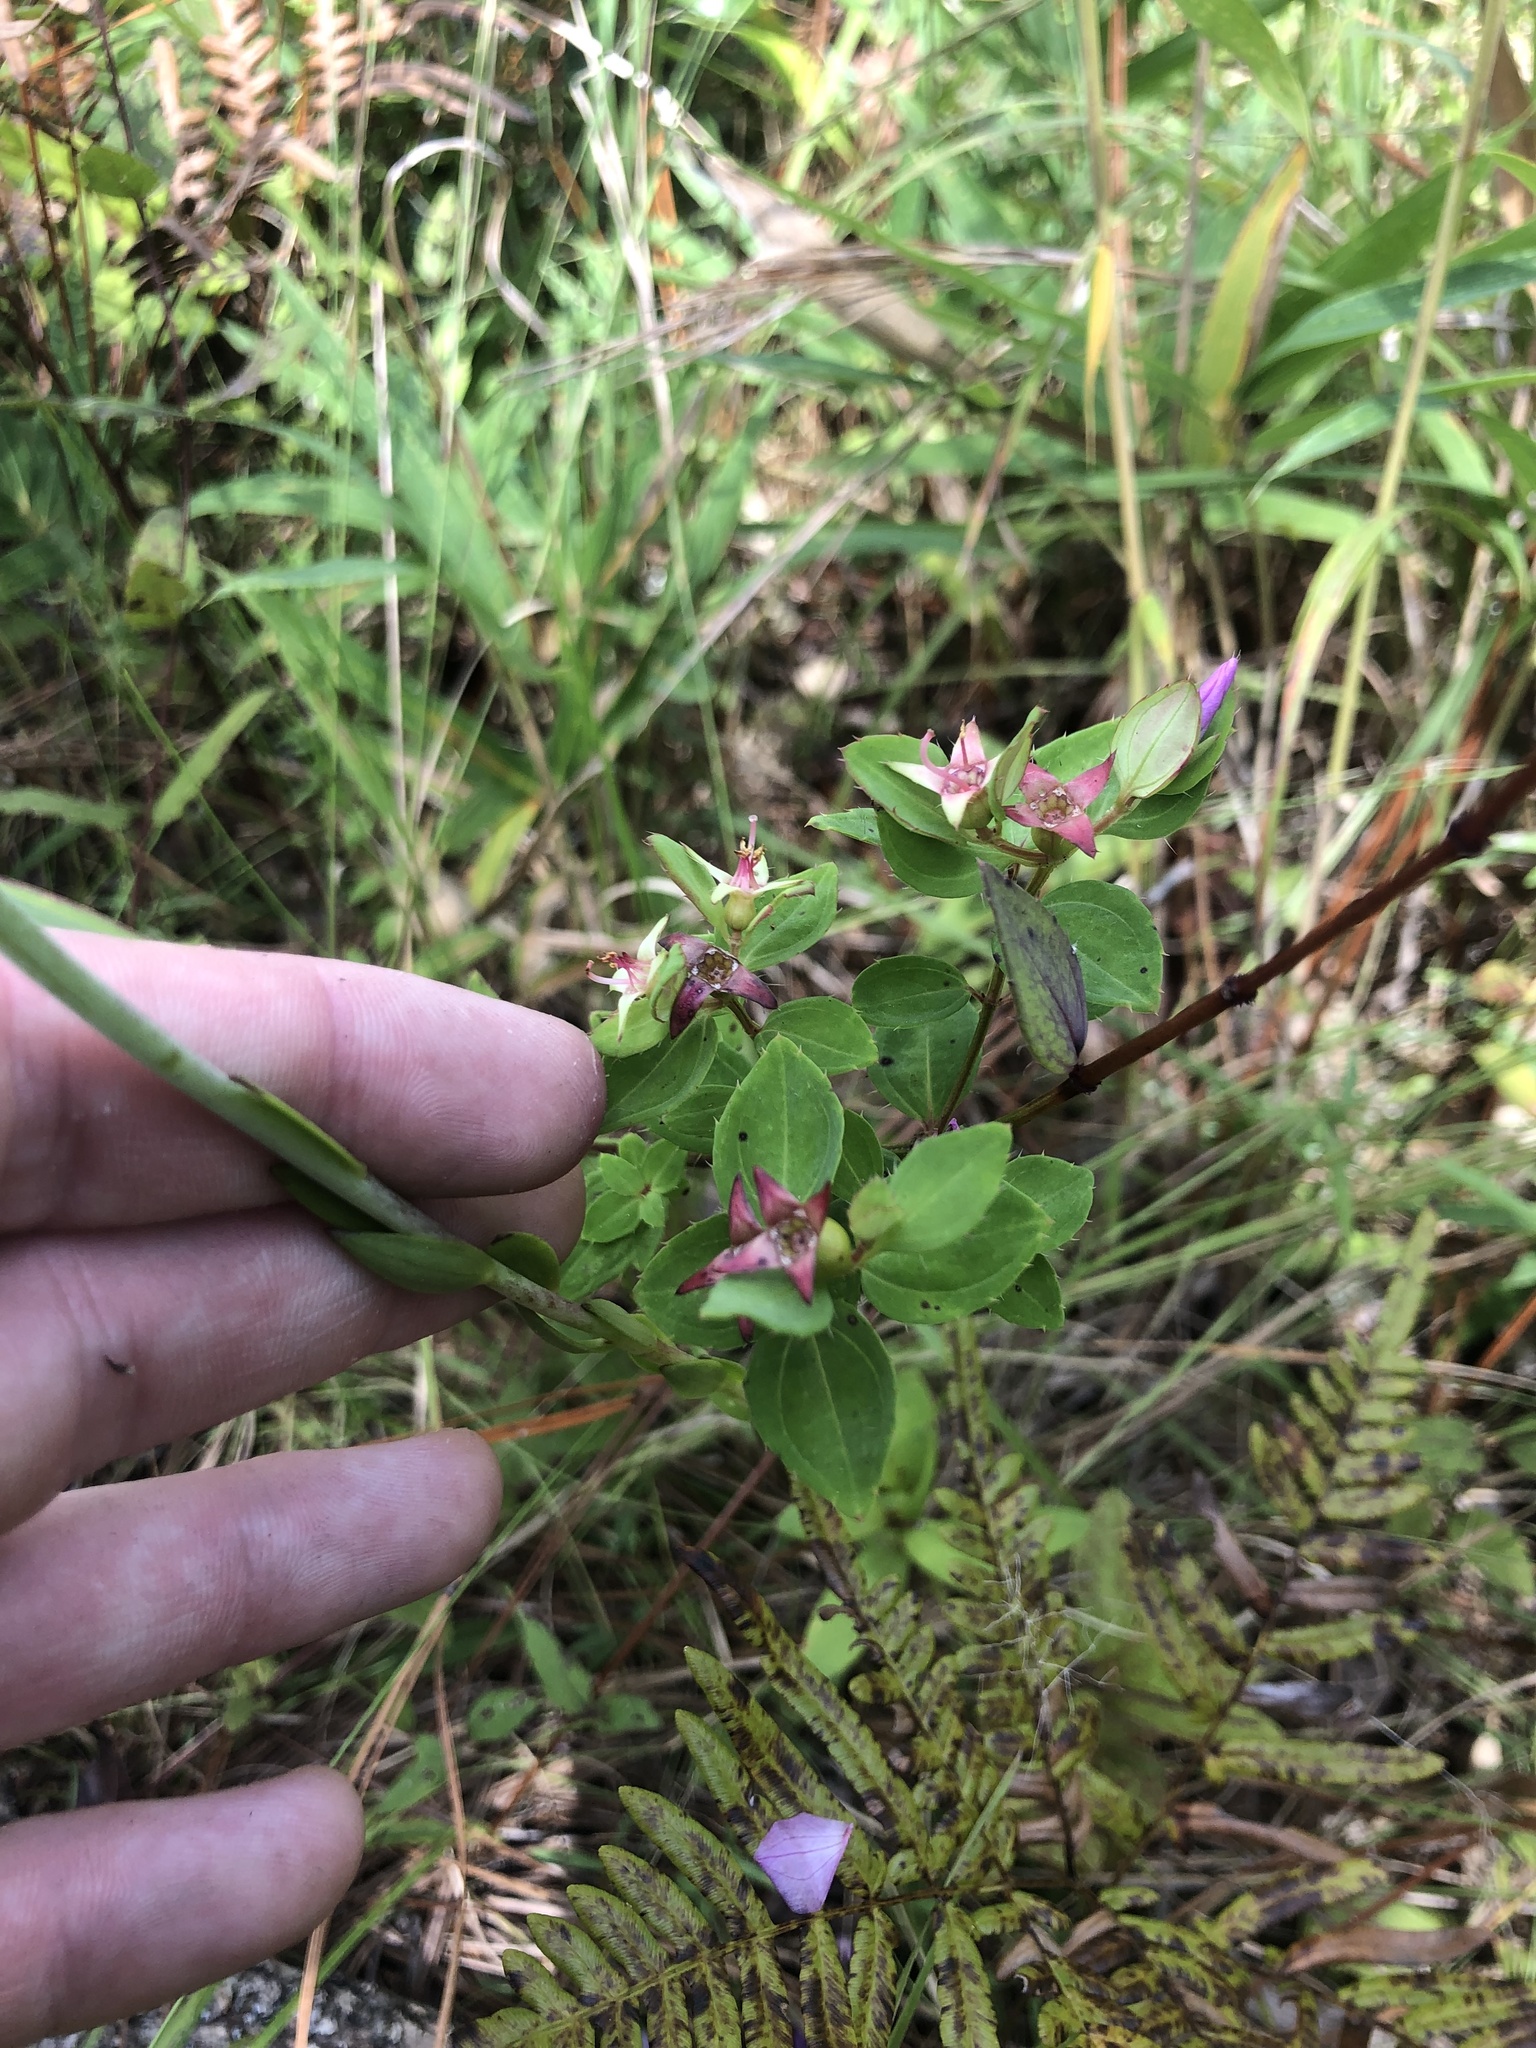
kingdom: Plantae
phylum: Tracheophyta
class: Magnoliopsida
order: Myrtales
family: Melastomataceae
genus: Rhexia
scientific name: Rhexia petiolata
